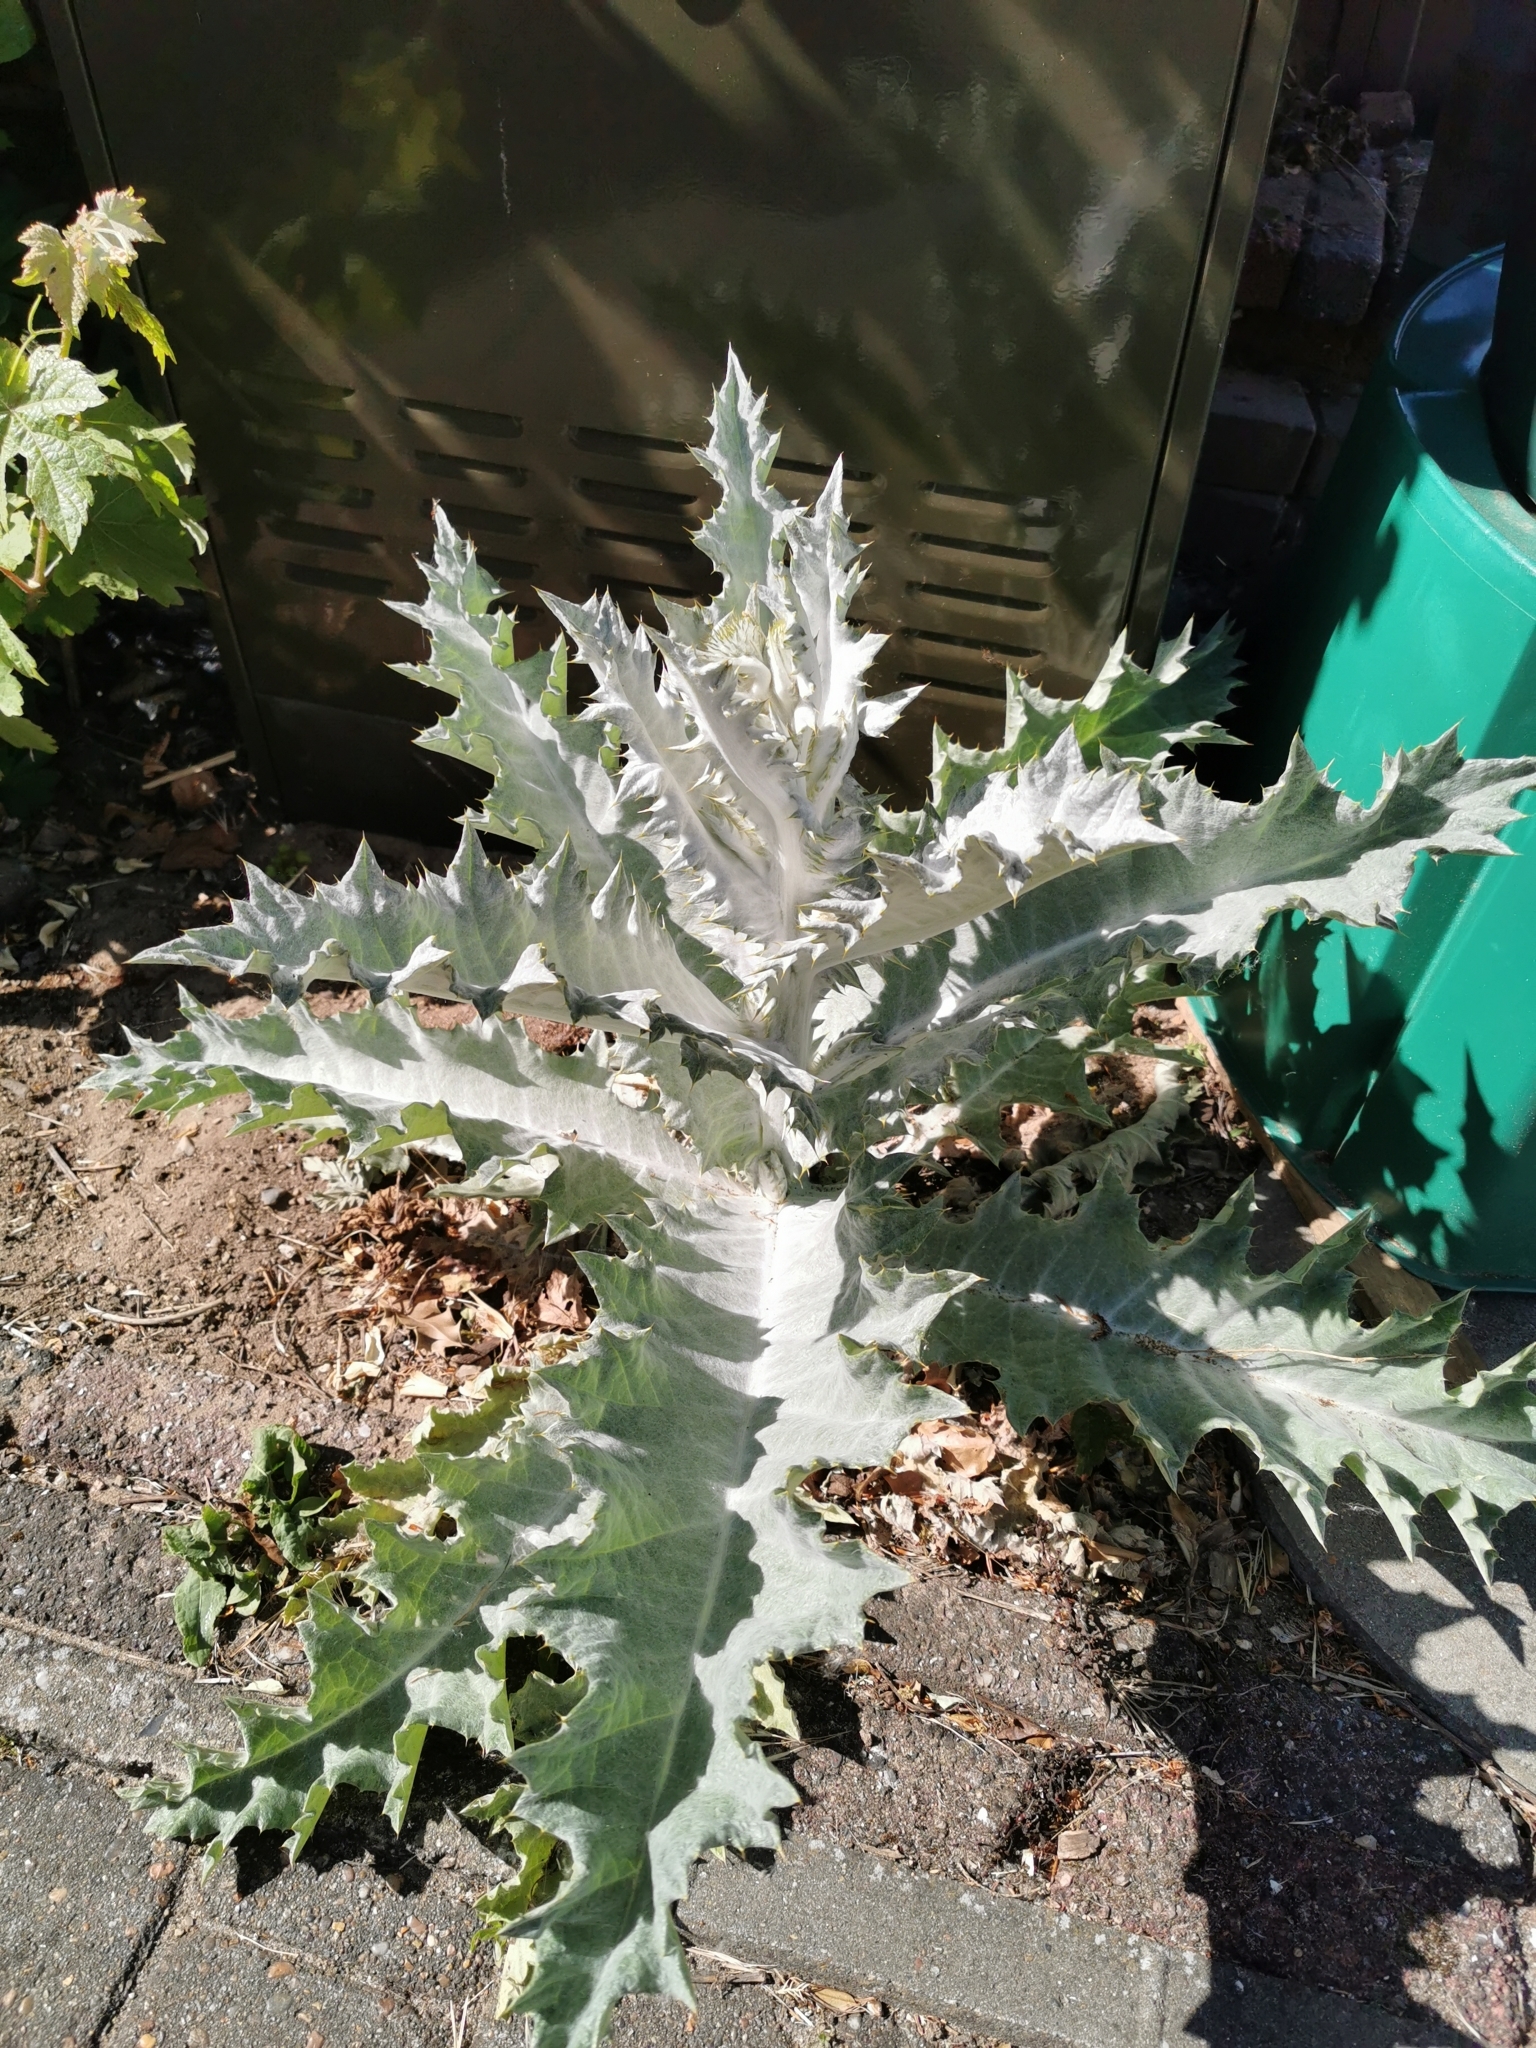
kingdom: Plantae
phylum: Tracheophyta
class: Magnoliopsida
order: Asterales
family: Asteraceae
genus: Onopordum
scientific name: Onopordum acanthium
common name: Scotch thistle
